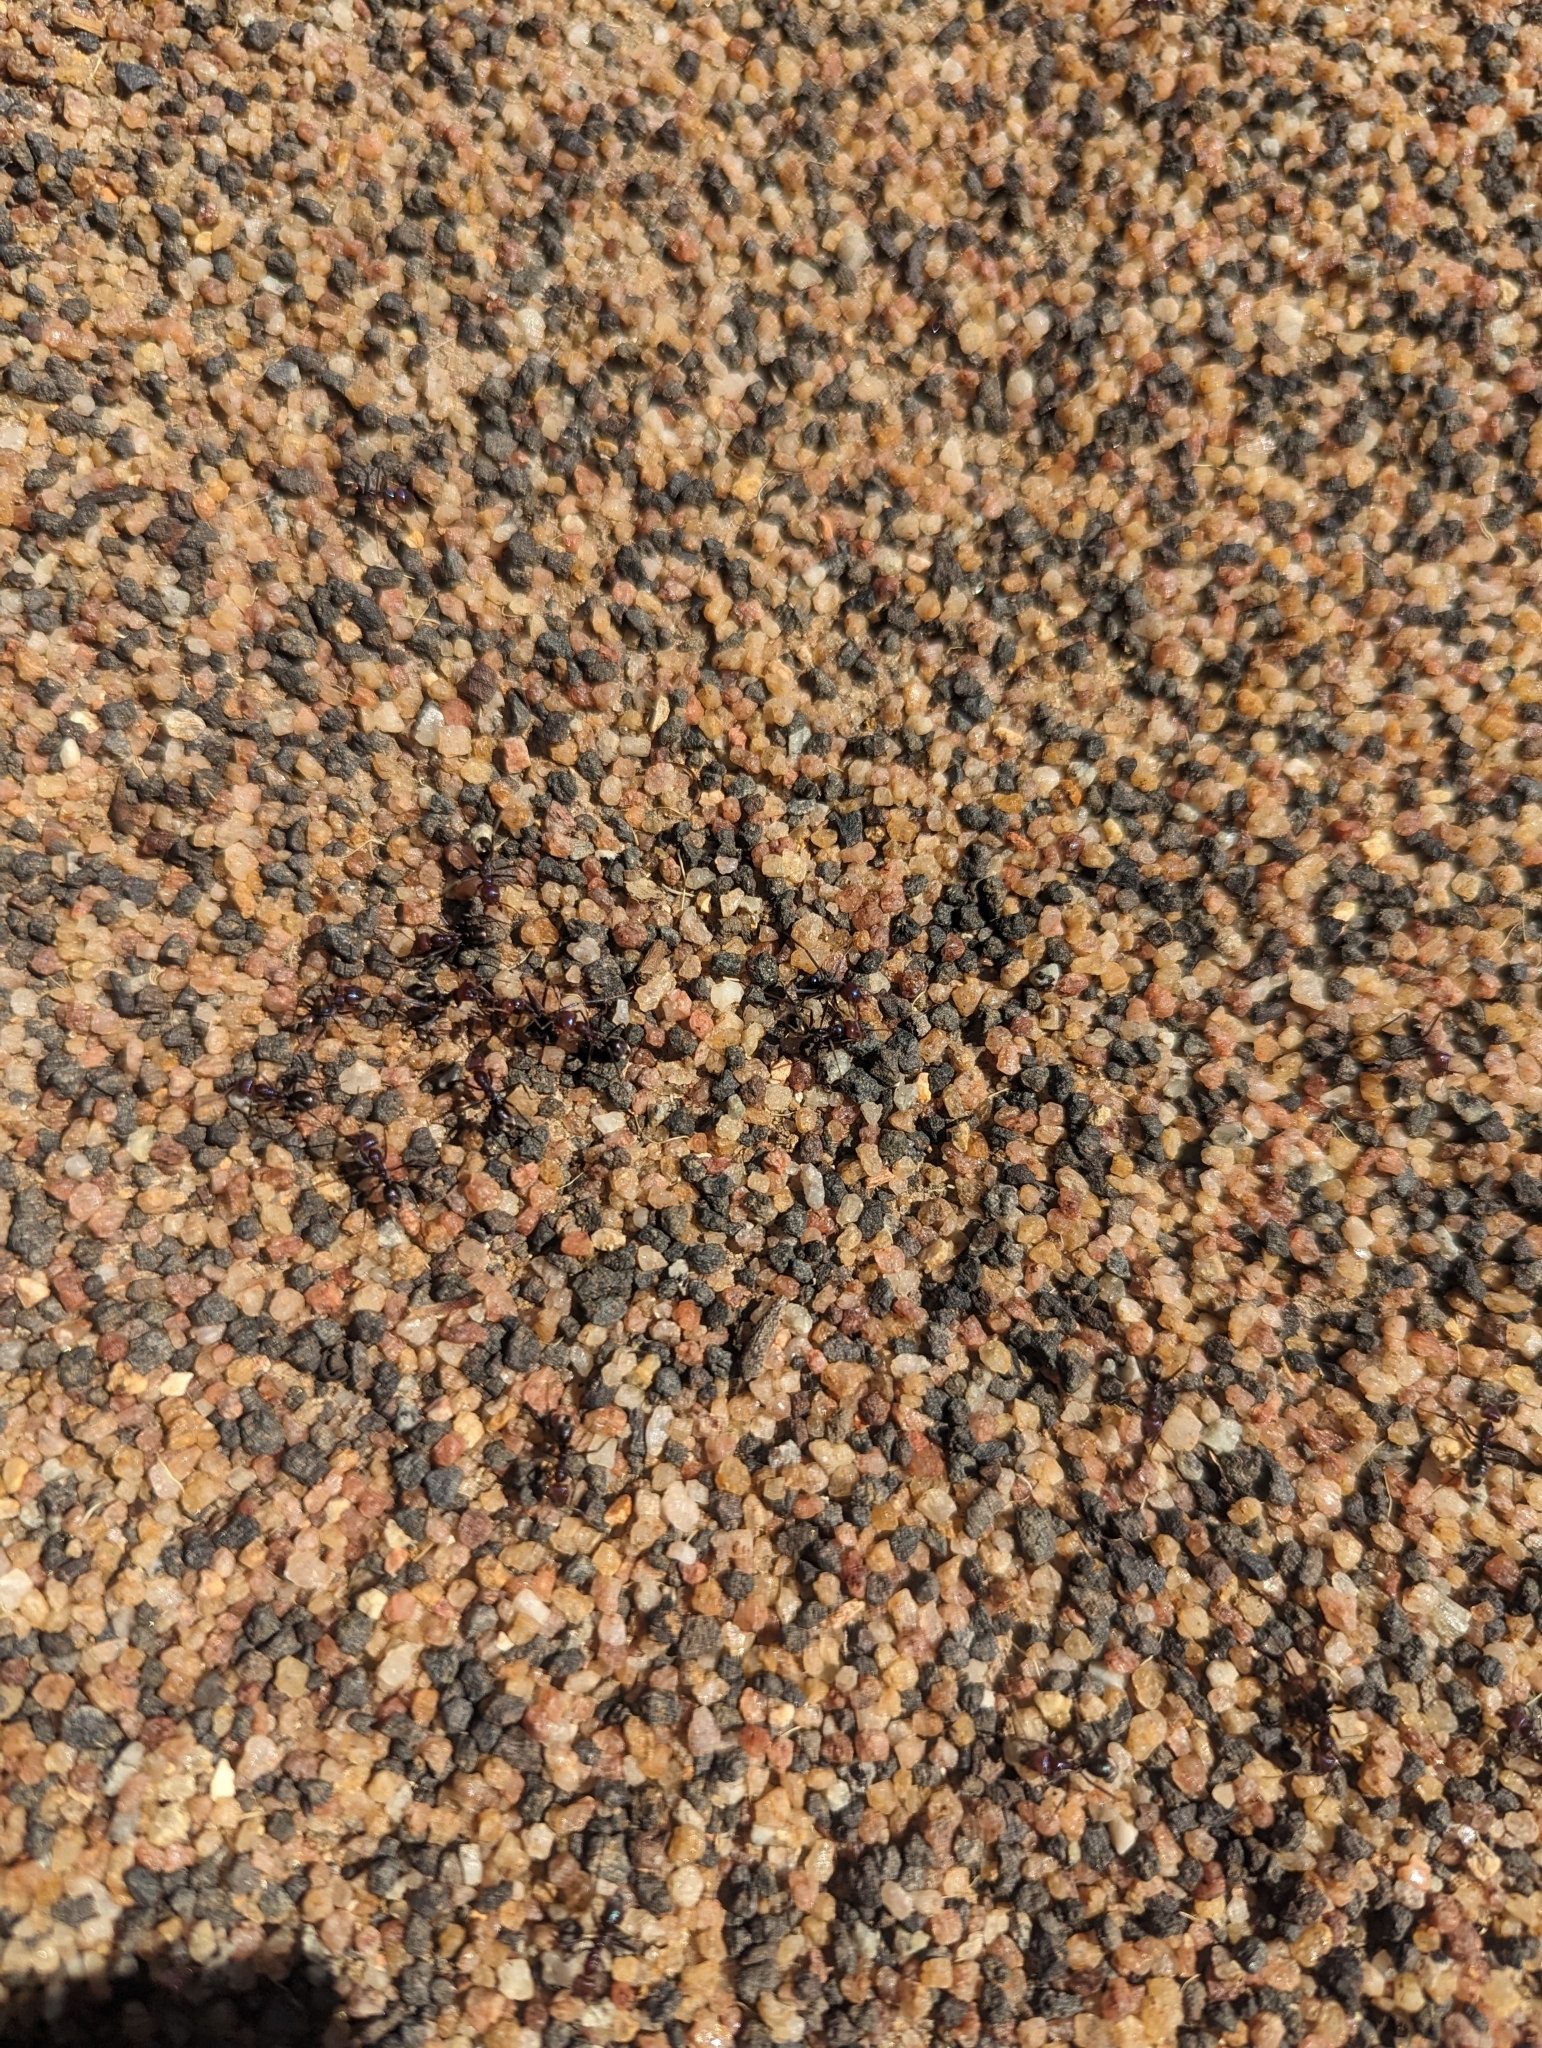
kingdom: Animalia
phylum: Arthropoda
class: Insecta
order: Hymenoptera
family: Formicidae
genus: Iridomyrmex
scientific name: Iridomyrmex purpureus
